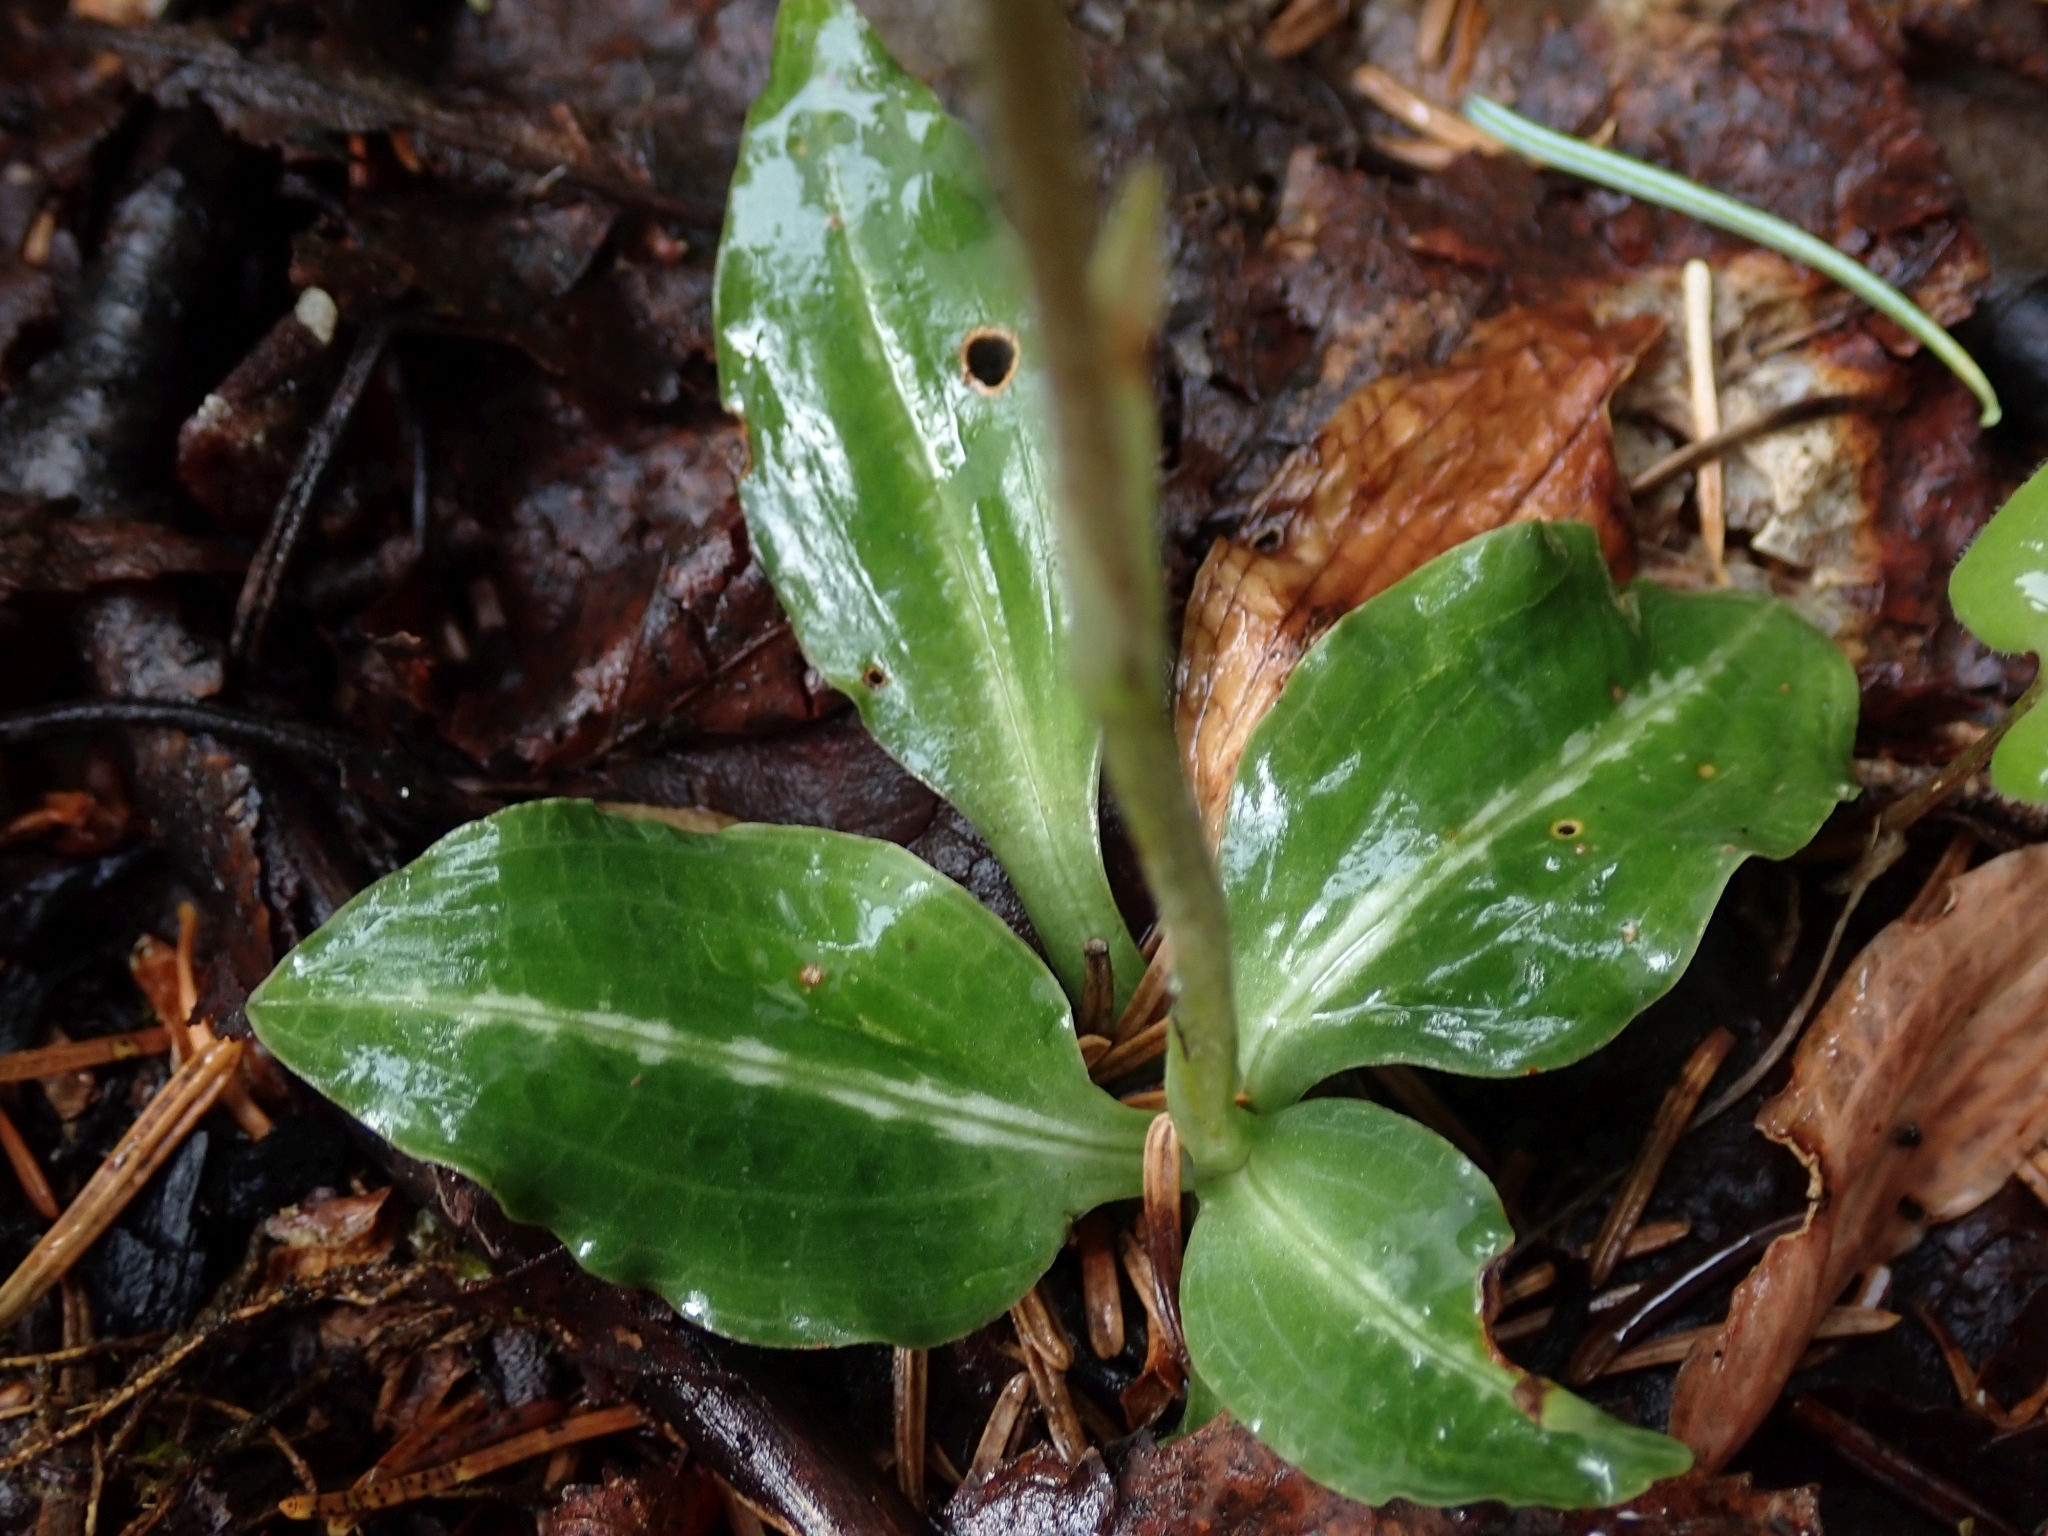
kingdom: Plantae
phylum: Tracheophyta
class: Liliopsida
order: Asparagales
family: Orchidaceae
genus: Goodyera
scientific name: Goodyera oblongifolia
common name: Giant rattlesnake-plantain
